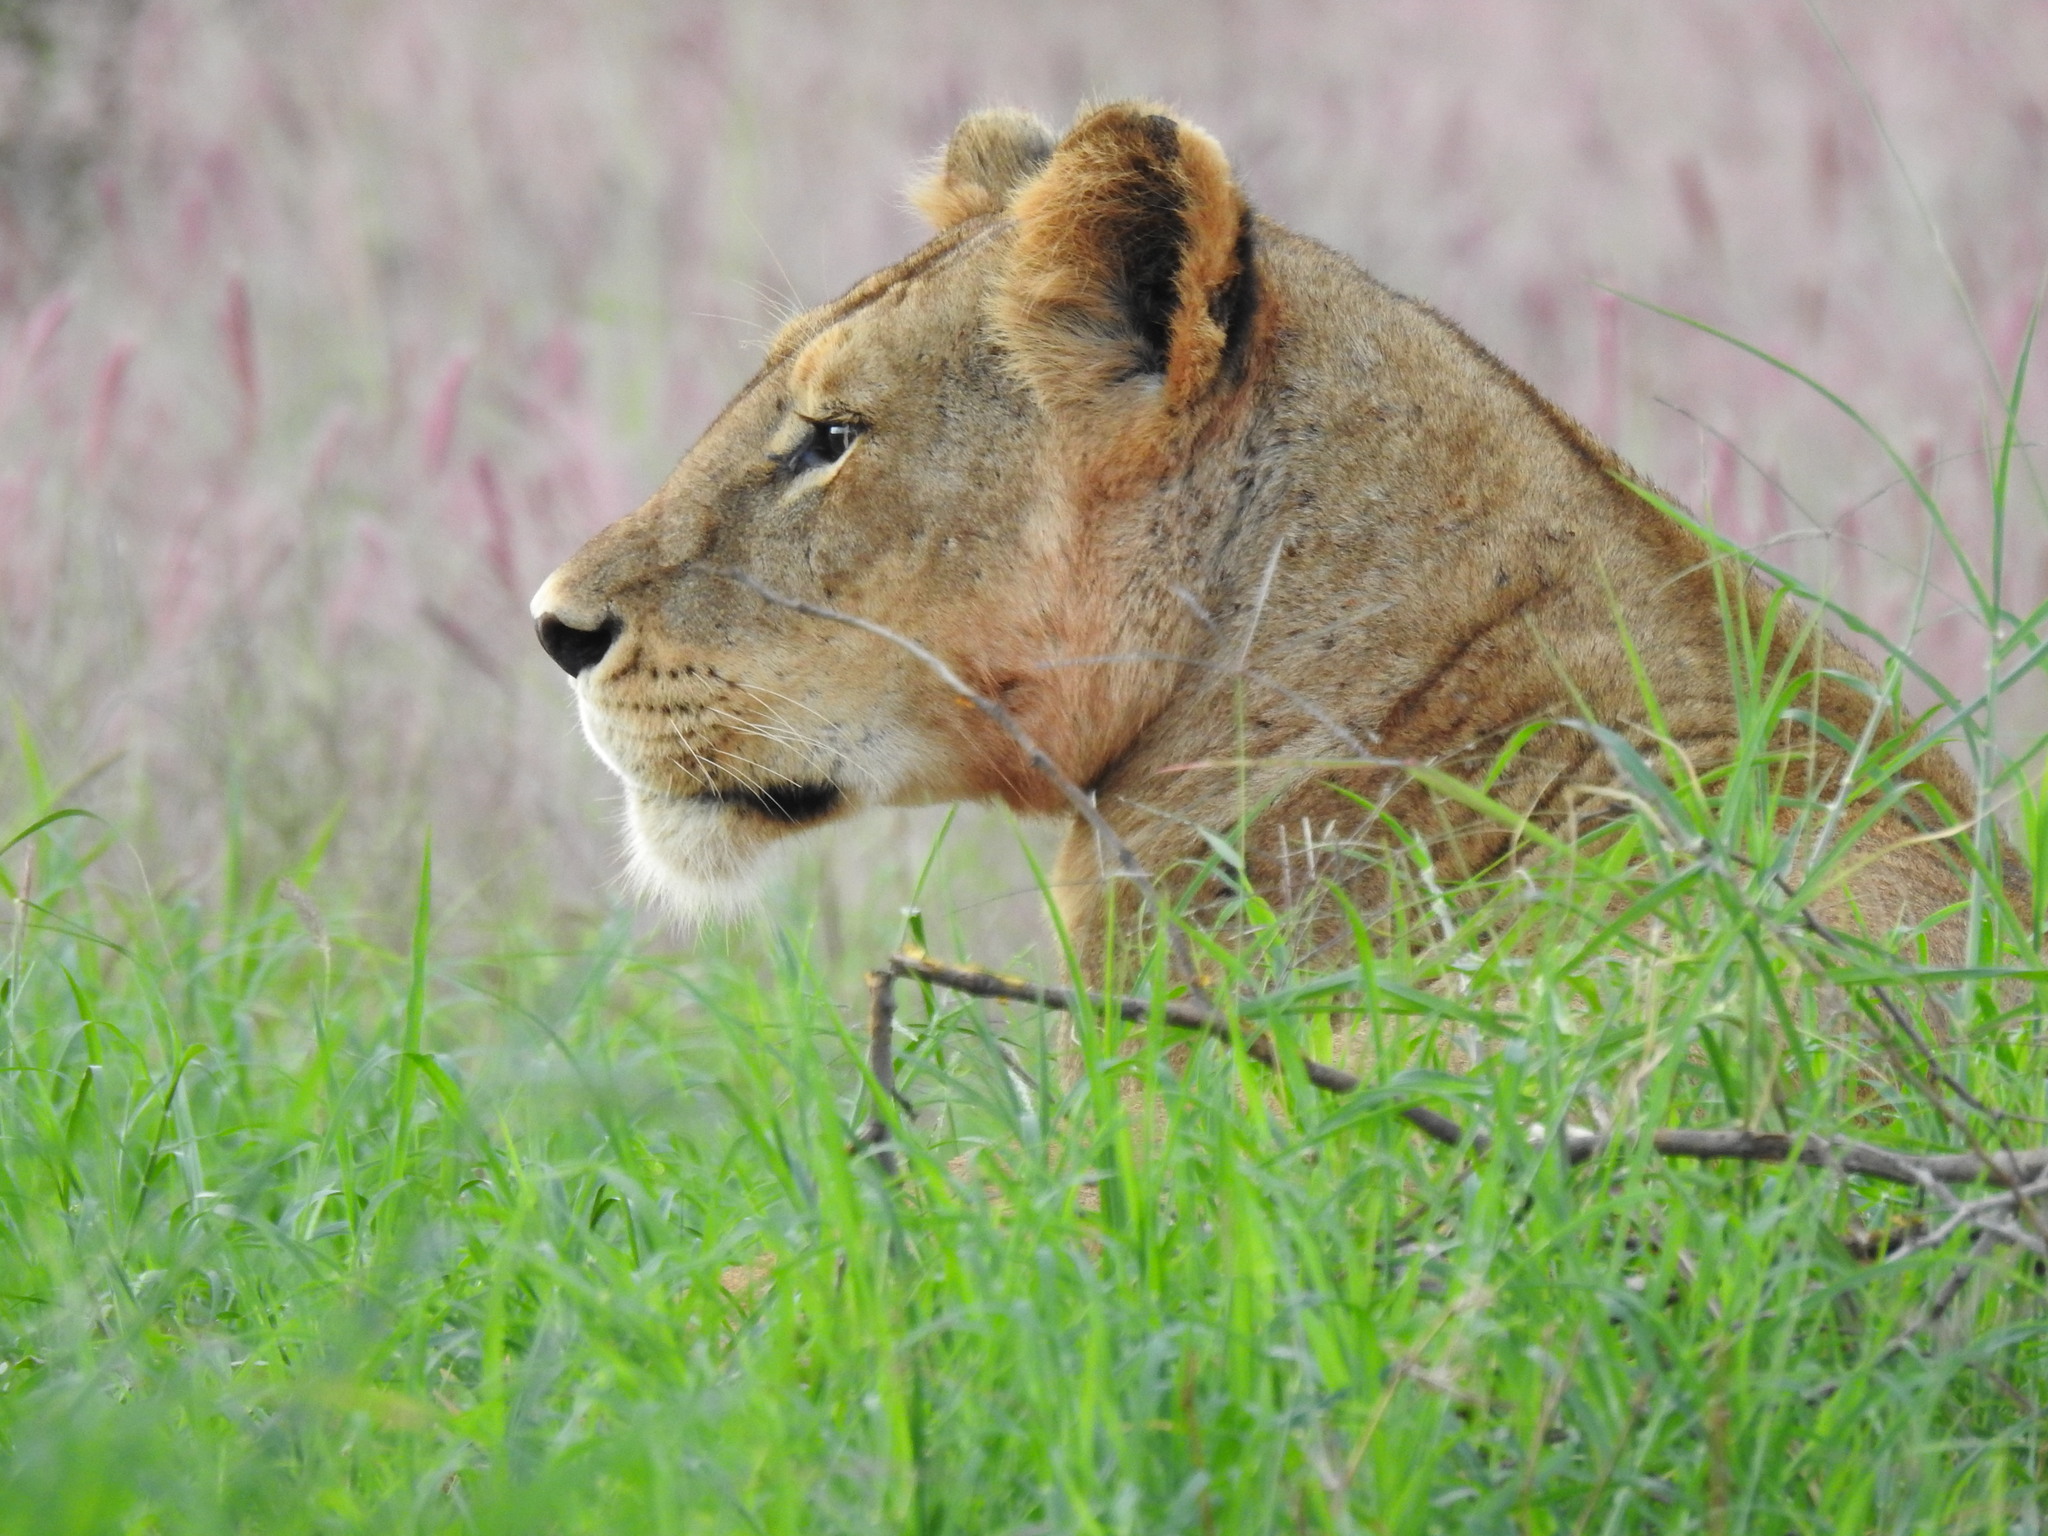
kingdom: Animalia
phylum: Chordata
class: Mammalia
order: Carnivora
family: Felidae
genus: Panthera
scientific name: Panthera leo
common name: Lion
